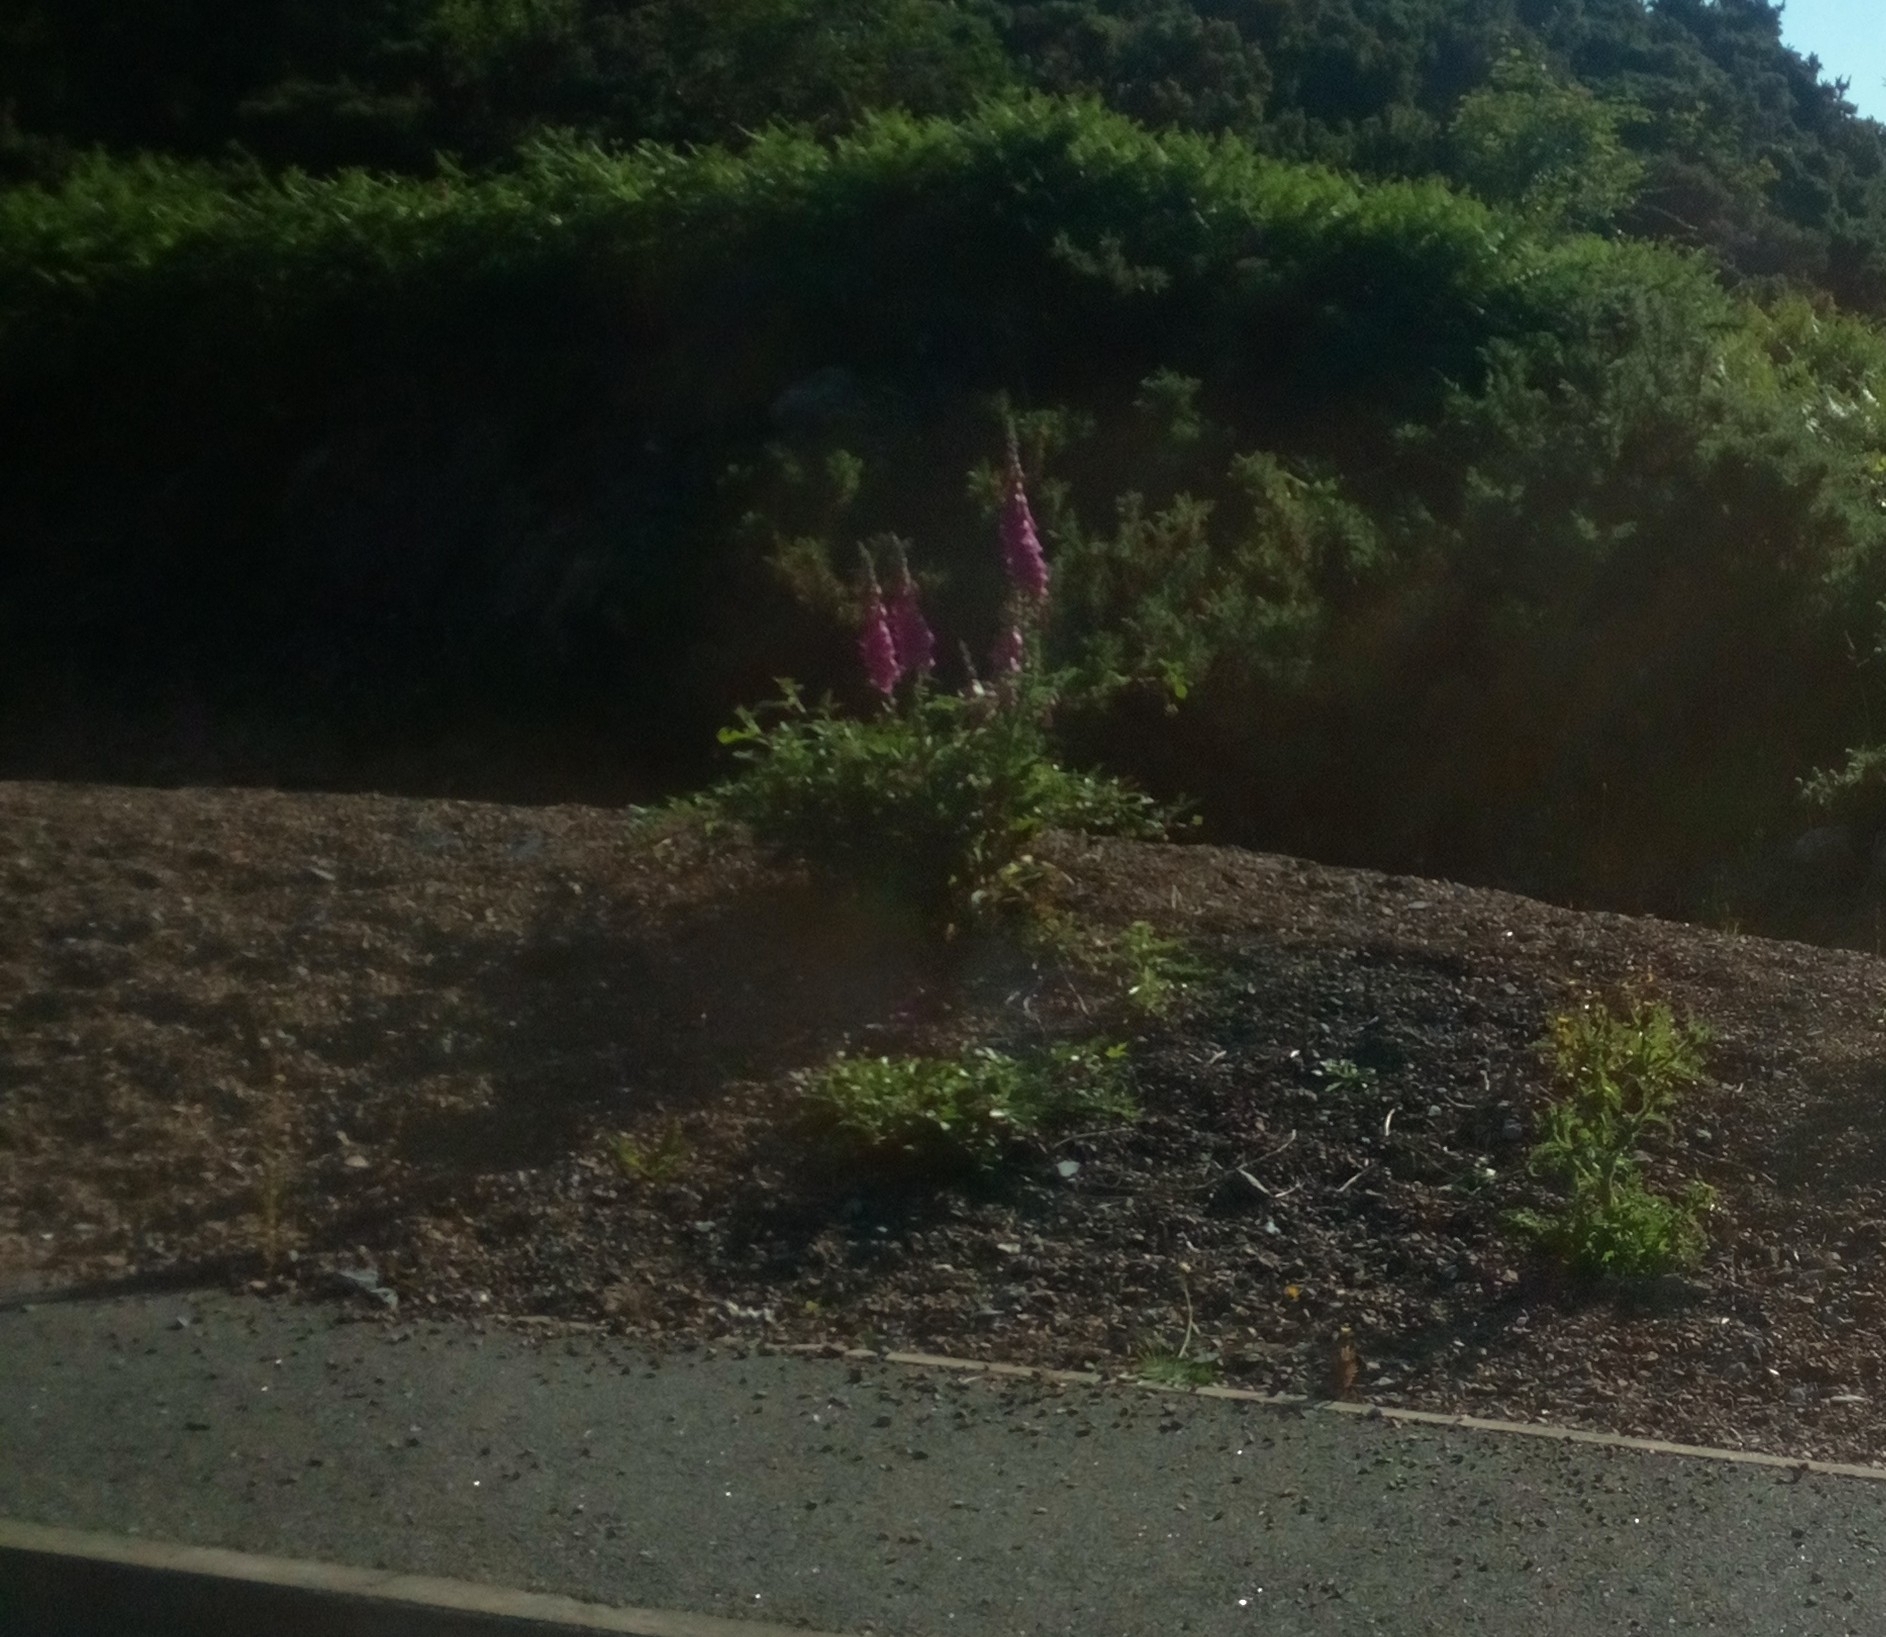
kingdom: Plantae
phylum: Tracheophyta
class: Magnoliopsida
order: Lamiales
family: Plantaginaceae
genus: Digitalis
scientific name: Digitalis purpurea
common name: Foxglove
